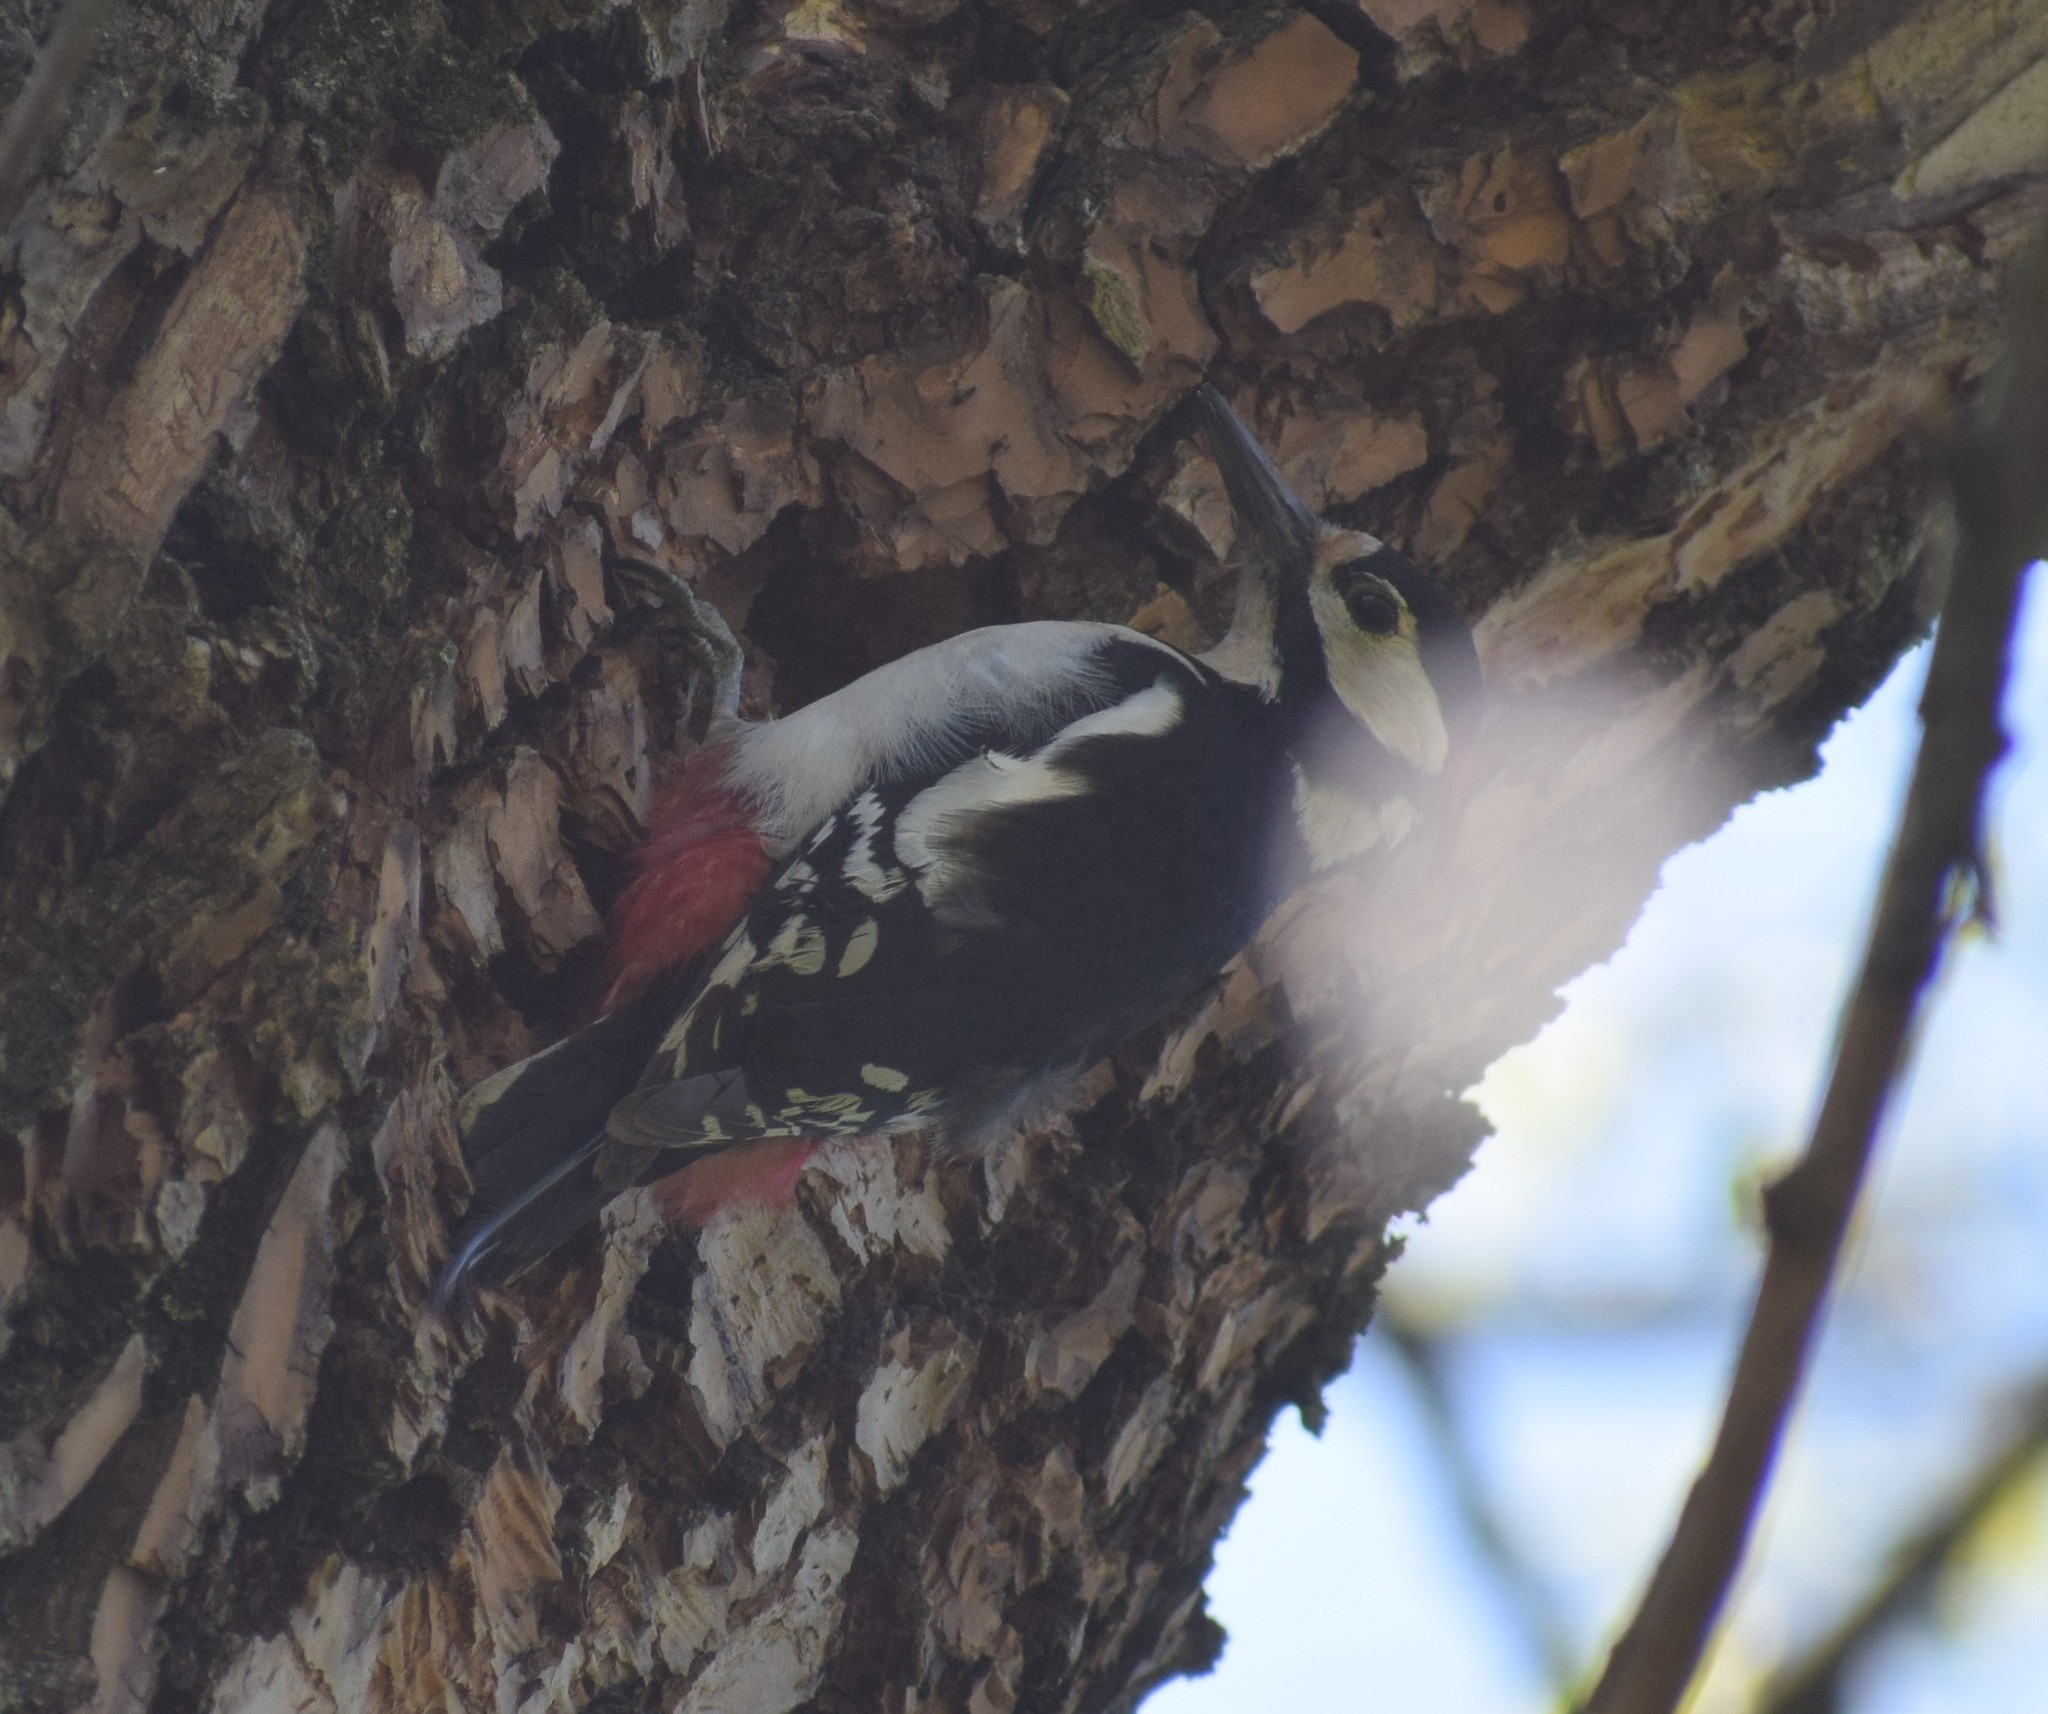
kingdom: Animalia
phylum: Chordata
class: Aves
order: Piciformes
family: Picidae
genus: Dendrocopos
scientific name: Dendrocopos major
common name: Great spotted woodpecker
